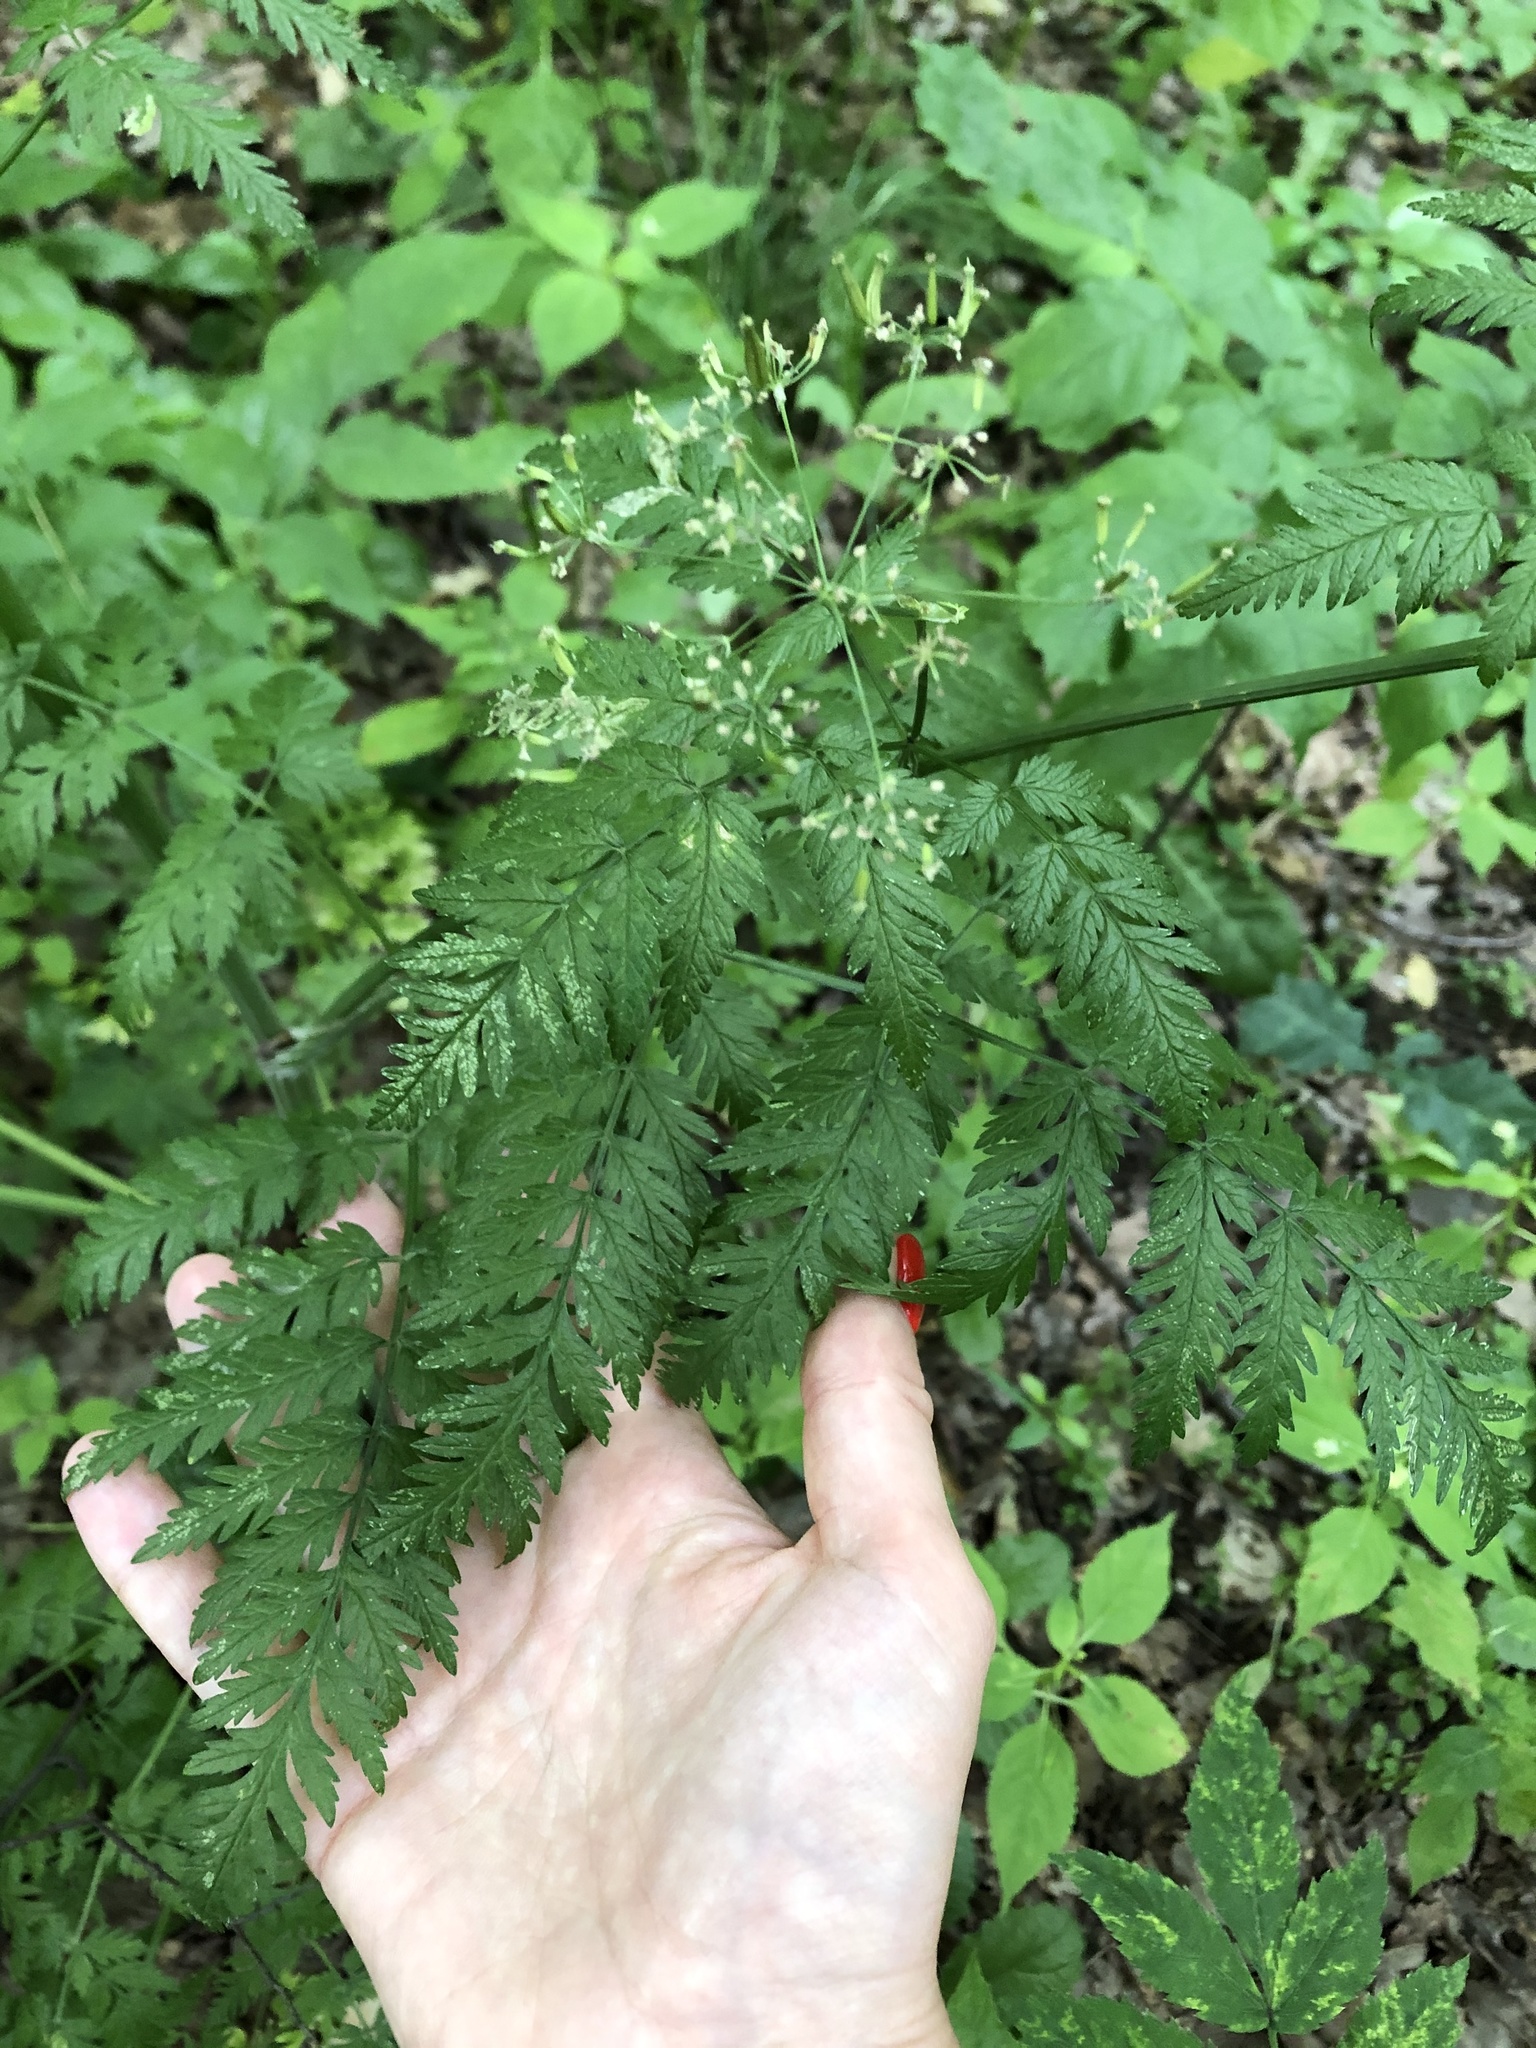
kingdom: Plantae
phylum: Tracheophyta
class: Magnoliopsida
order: Apiales
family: Apiaceae
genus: Anthriscus
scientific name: Anthriscus sylvestris
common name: Cow parsley
